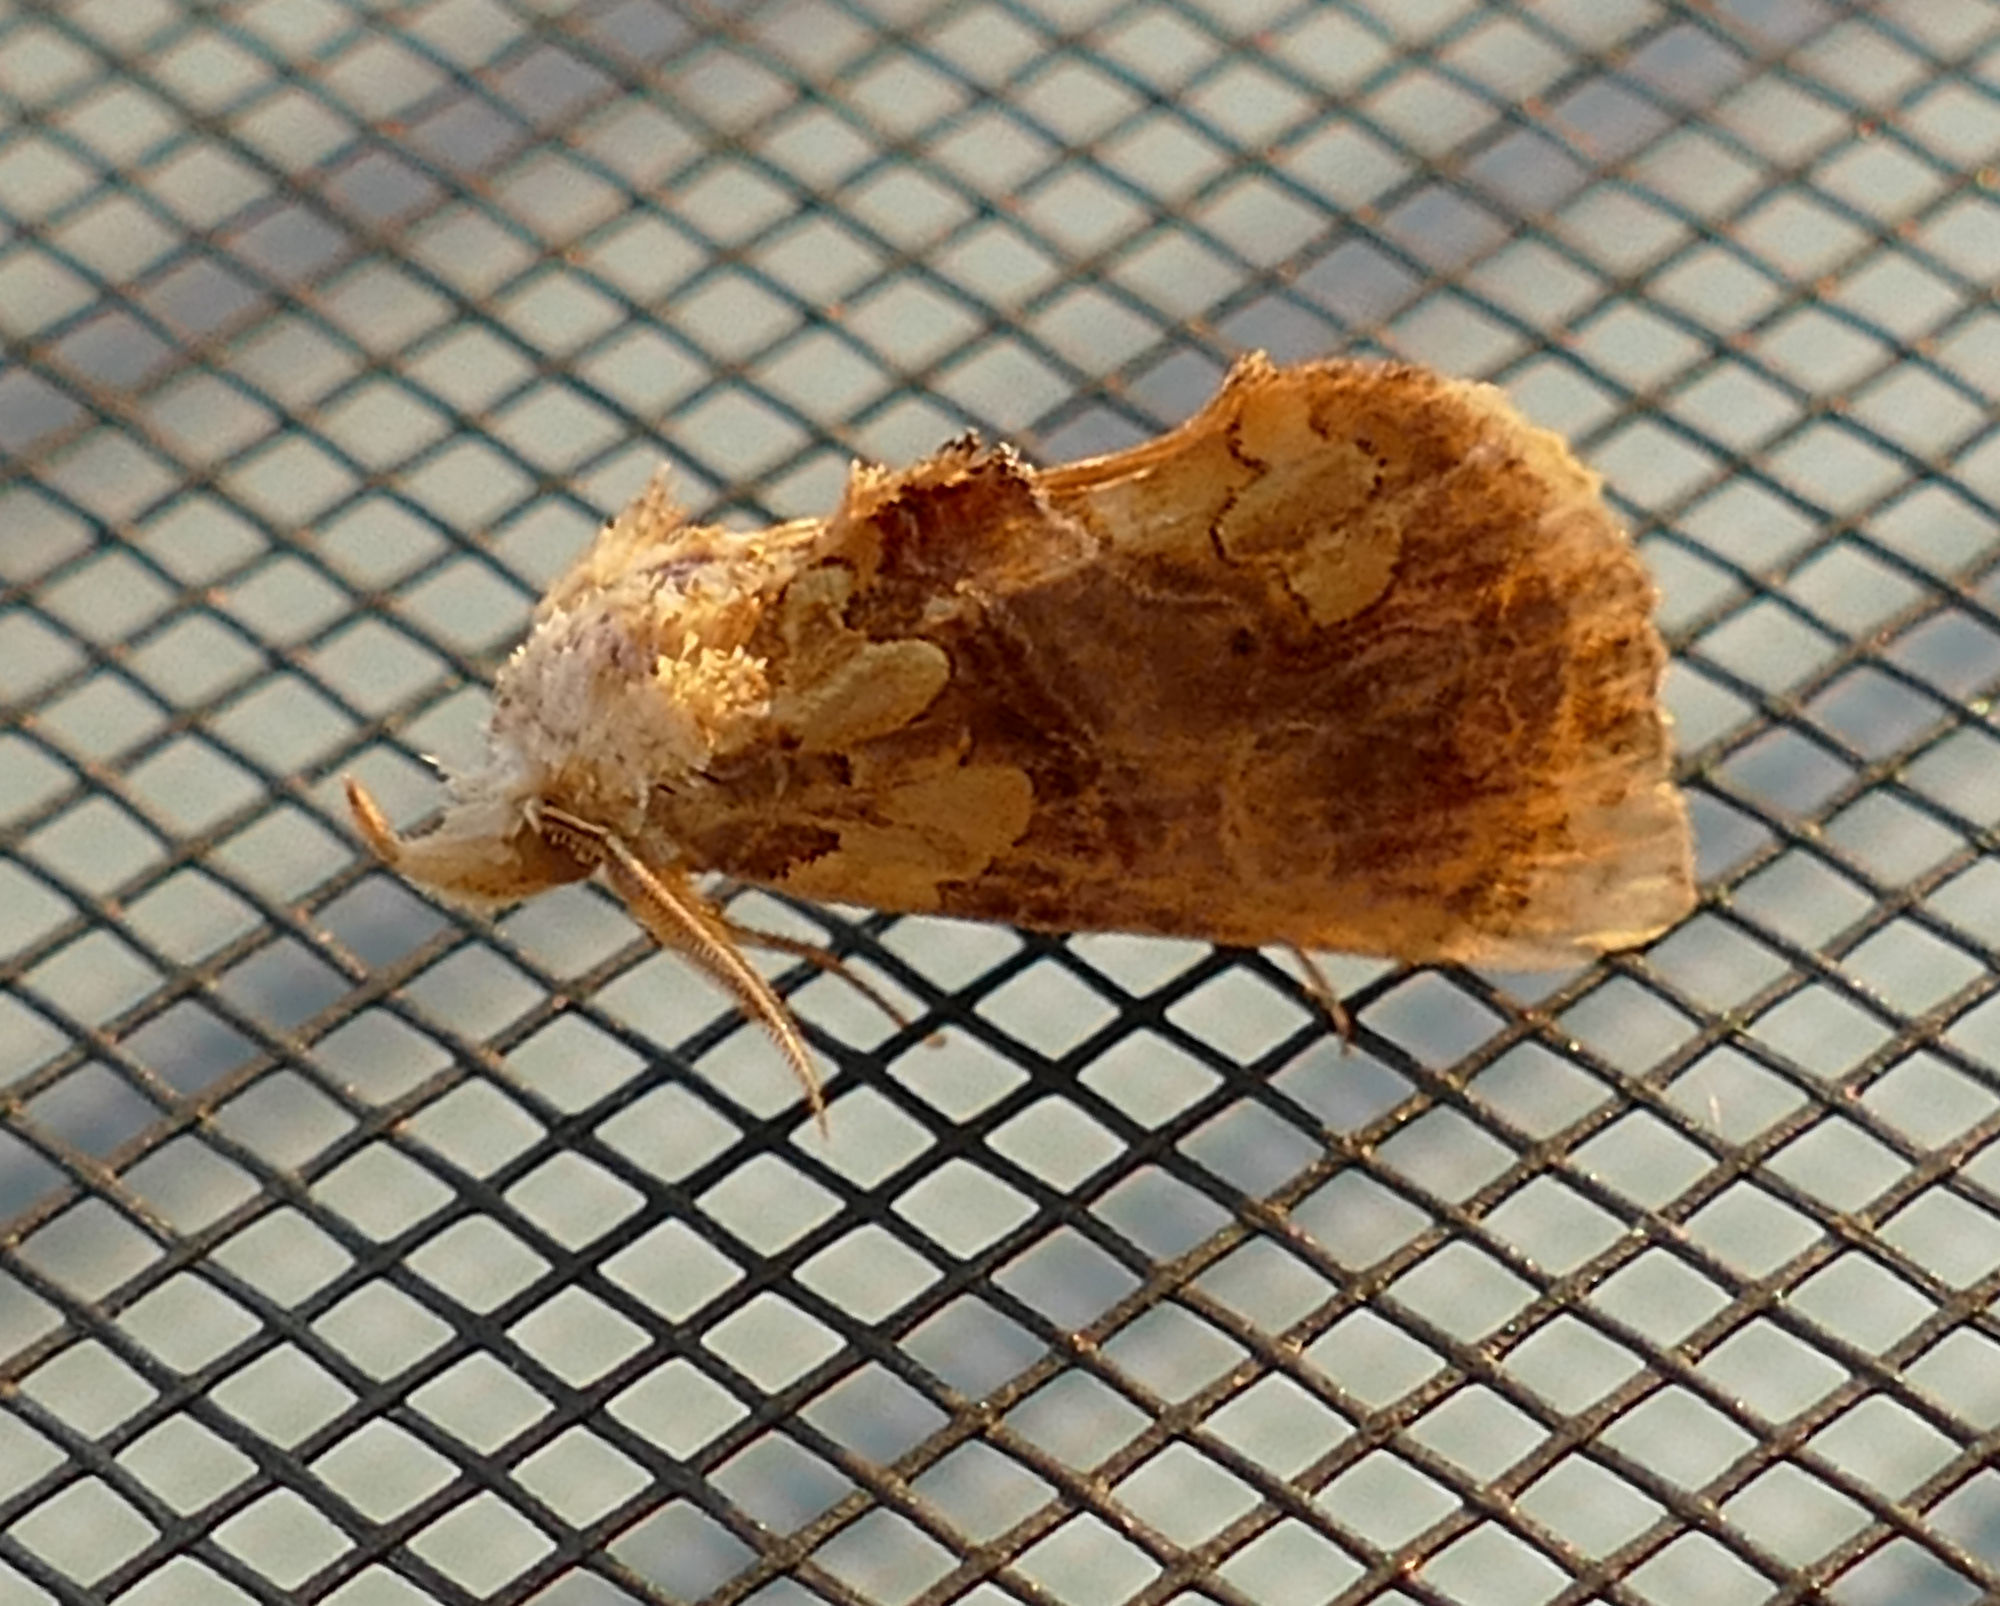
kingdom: Animalia
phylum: Arthropoda
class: Insecta
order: Lepidoptera
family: Erebidae
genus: Plusiodonta
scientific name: Plusiodonta compressipalpis
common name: Moonseed moth
